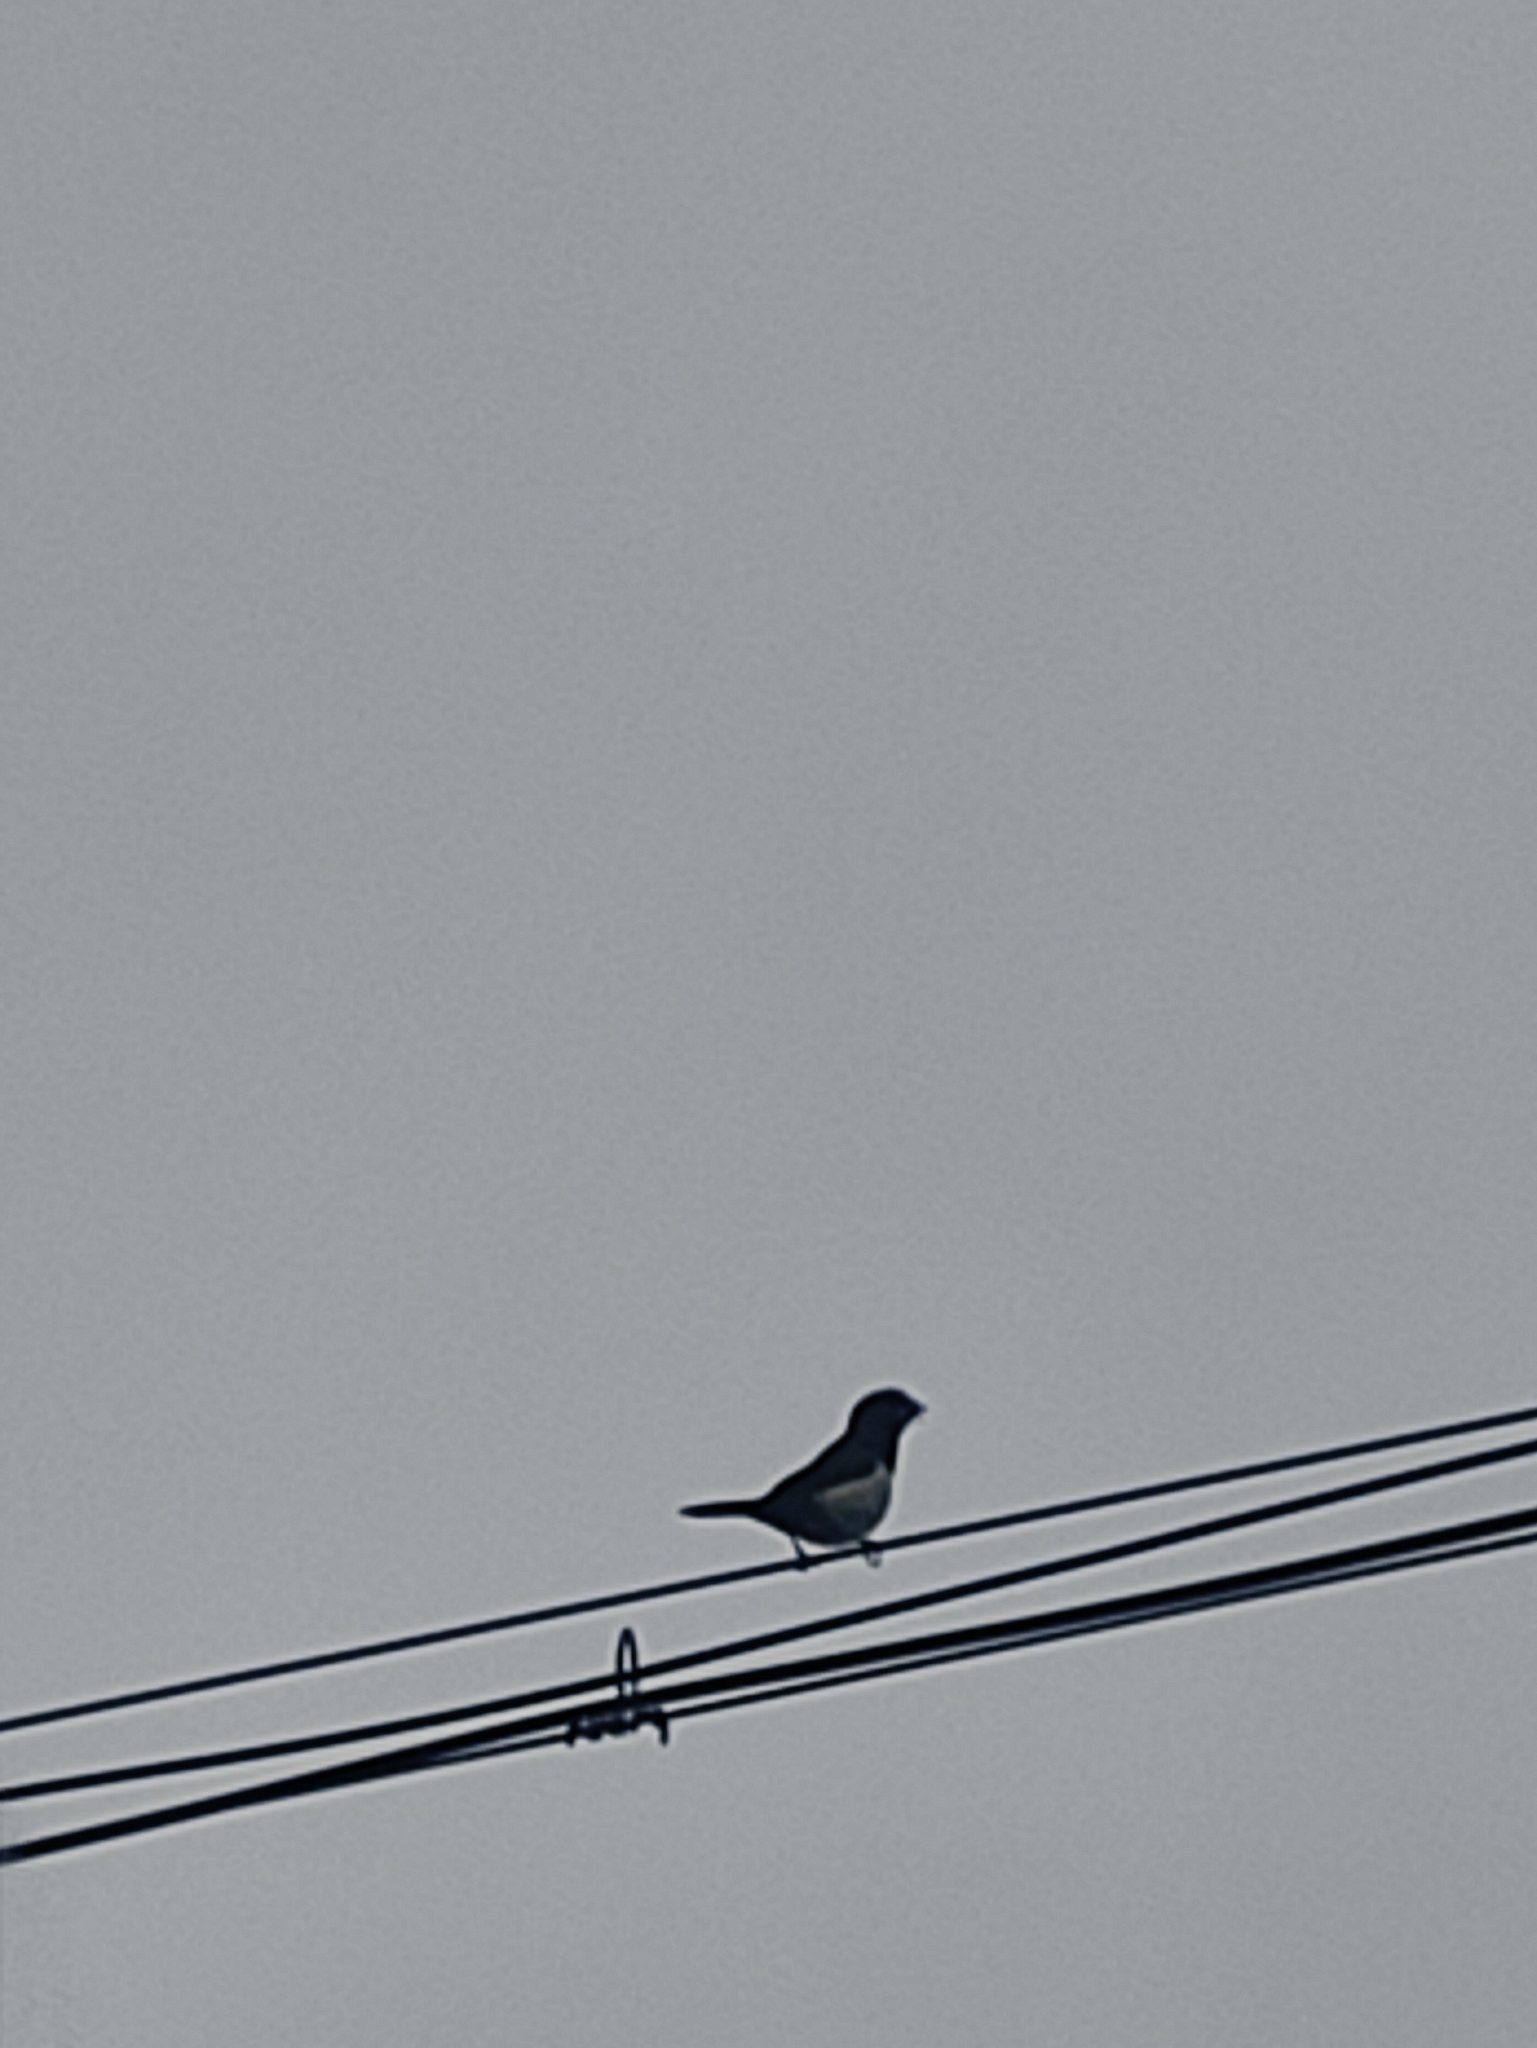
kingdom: Animalia
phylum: Chordata
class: Aves
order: Passeriformes
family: Estrildidae
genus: Lonchura
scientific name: Lonchura striata
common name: White-rumped munia
